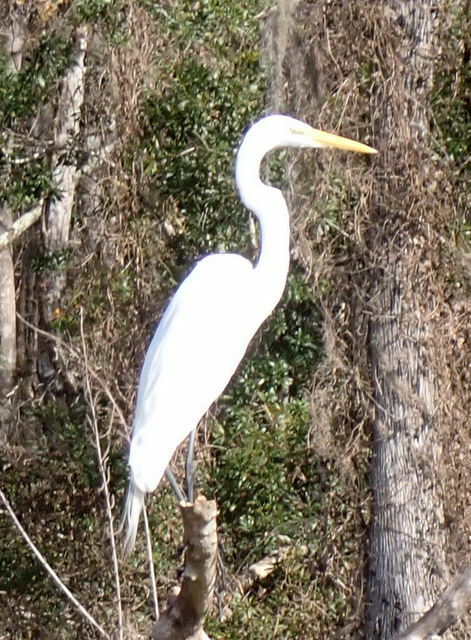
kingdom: Animalia
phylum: Chordata
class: Aves
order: Pelecaniformes
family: Ardeidae
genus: Ardea
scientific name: Ardea alba
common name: Great egret
